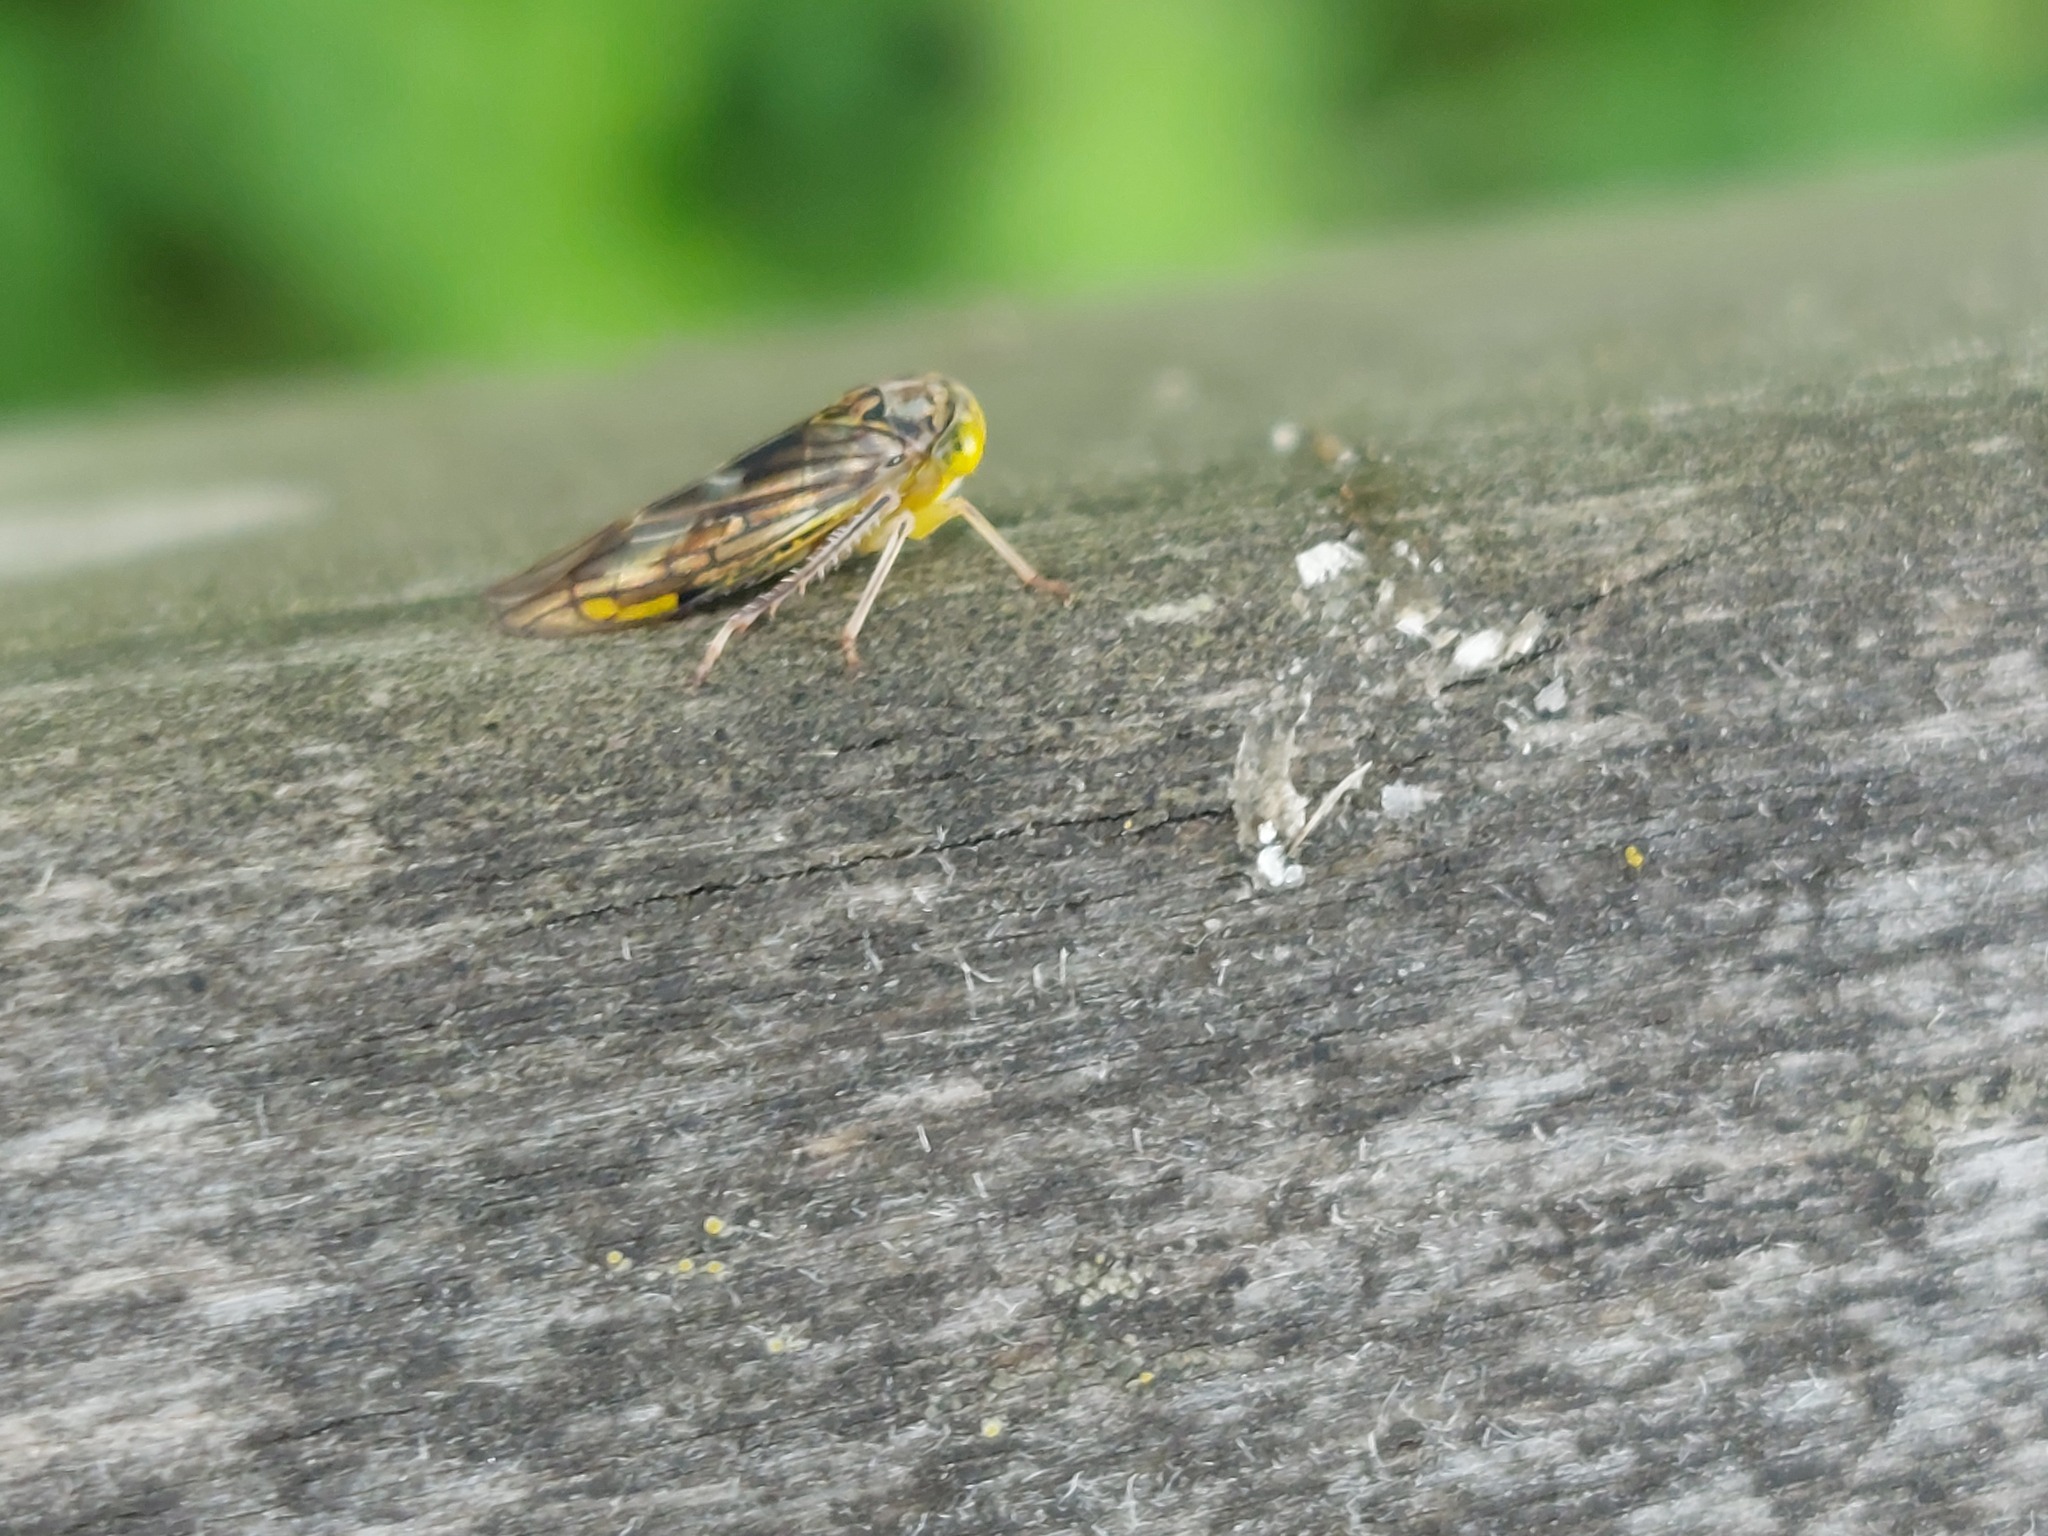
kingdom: Animalia
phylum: Arthropoda
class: Insecta
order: Hemiptera
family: Cicadellidae
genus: Idiocerus
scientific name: Idiocerus stigmaticalis
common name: Leafhopper
